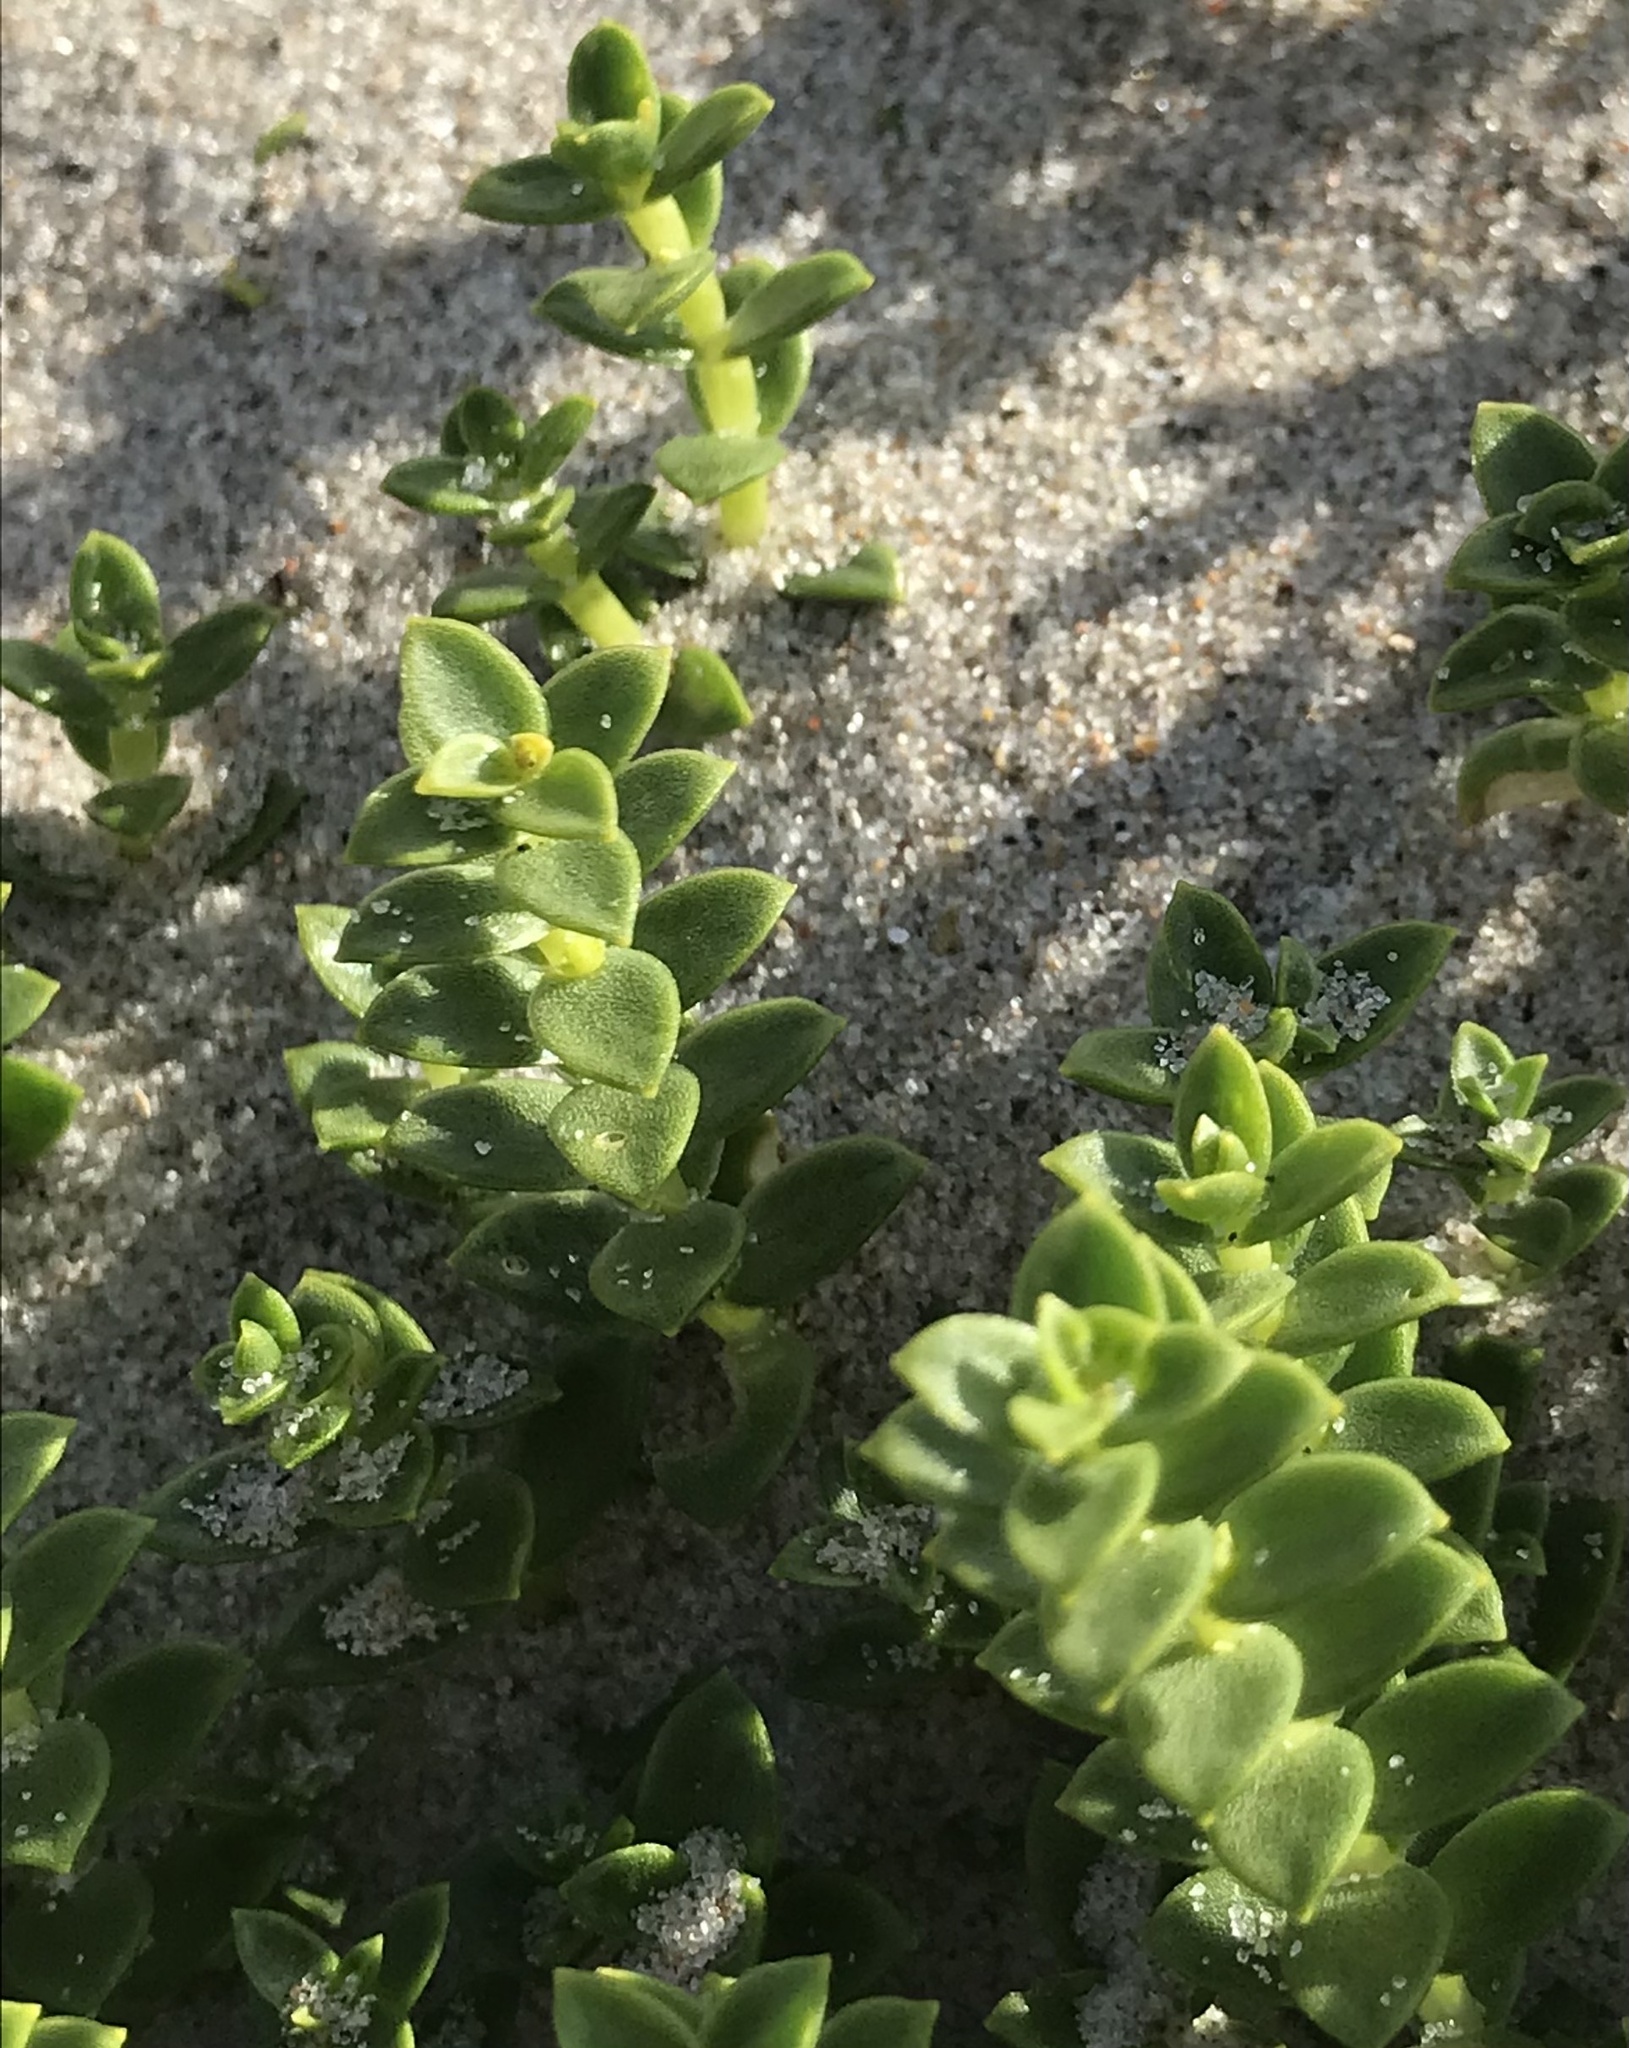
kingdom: Plantae
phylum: Tracheophyta
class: Magnoliopsida
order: Caryophyllales
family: Caryophyllaceae
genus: Honckenya
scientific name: Honckenya peploides
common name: Sea sandwort
